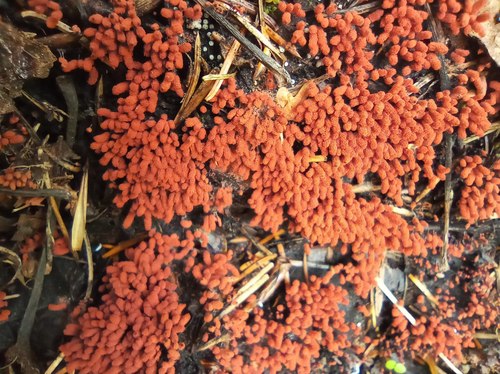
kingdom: Protozoa
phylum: Mycetozoa
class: Myxomycetes
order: Trichiales
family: Arcyriaceae
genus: Arcyria
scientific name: Arcyria
